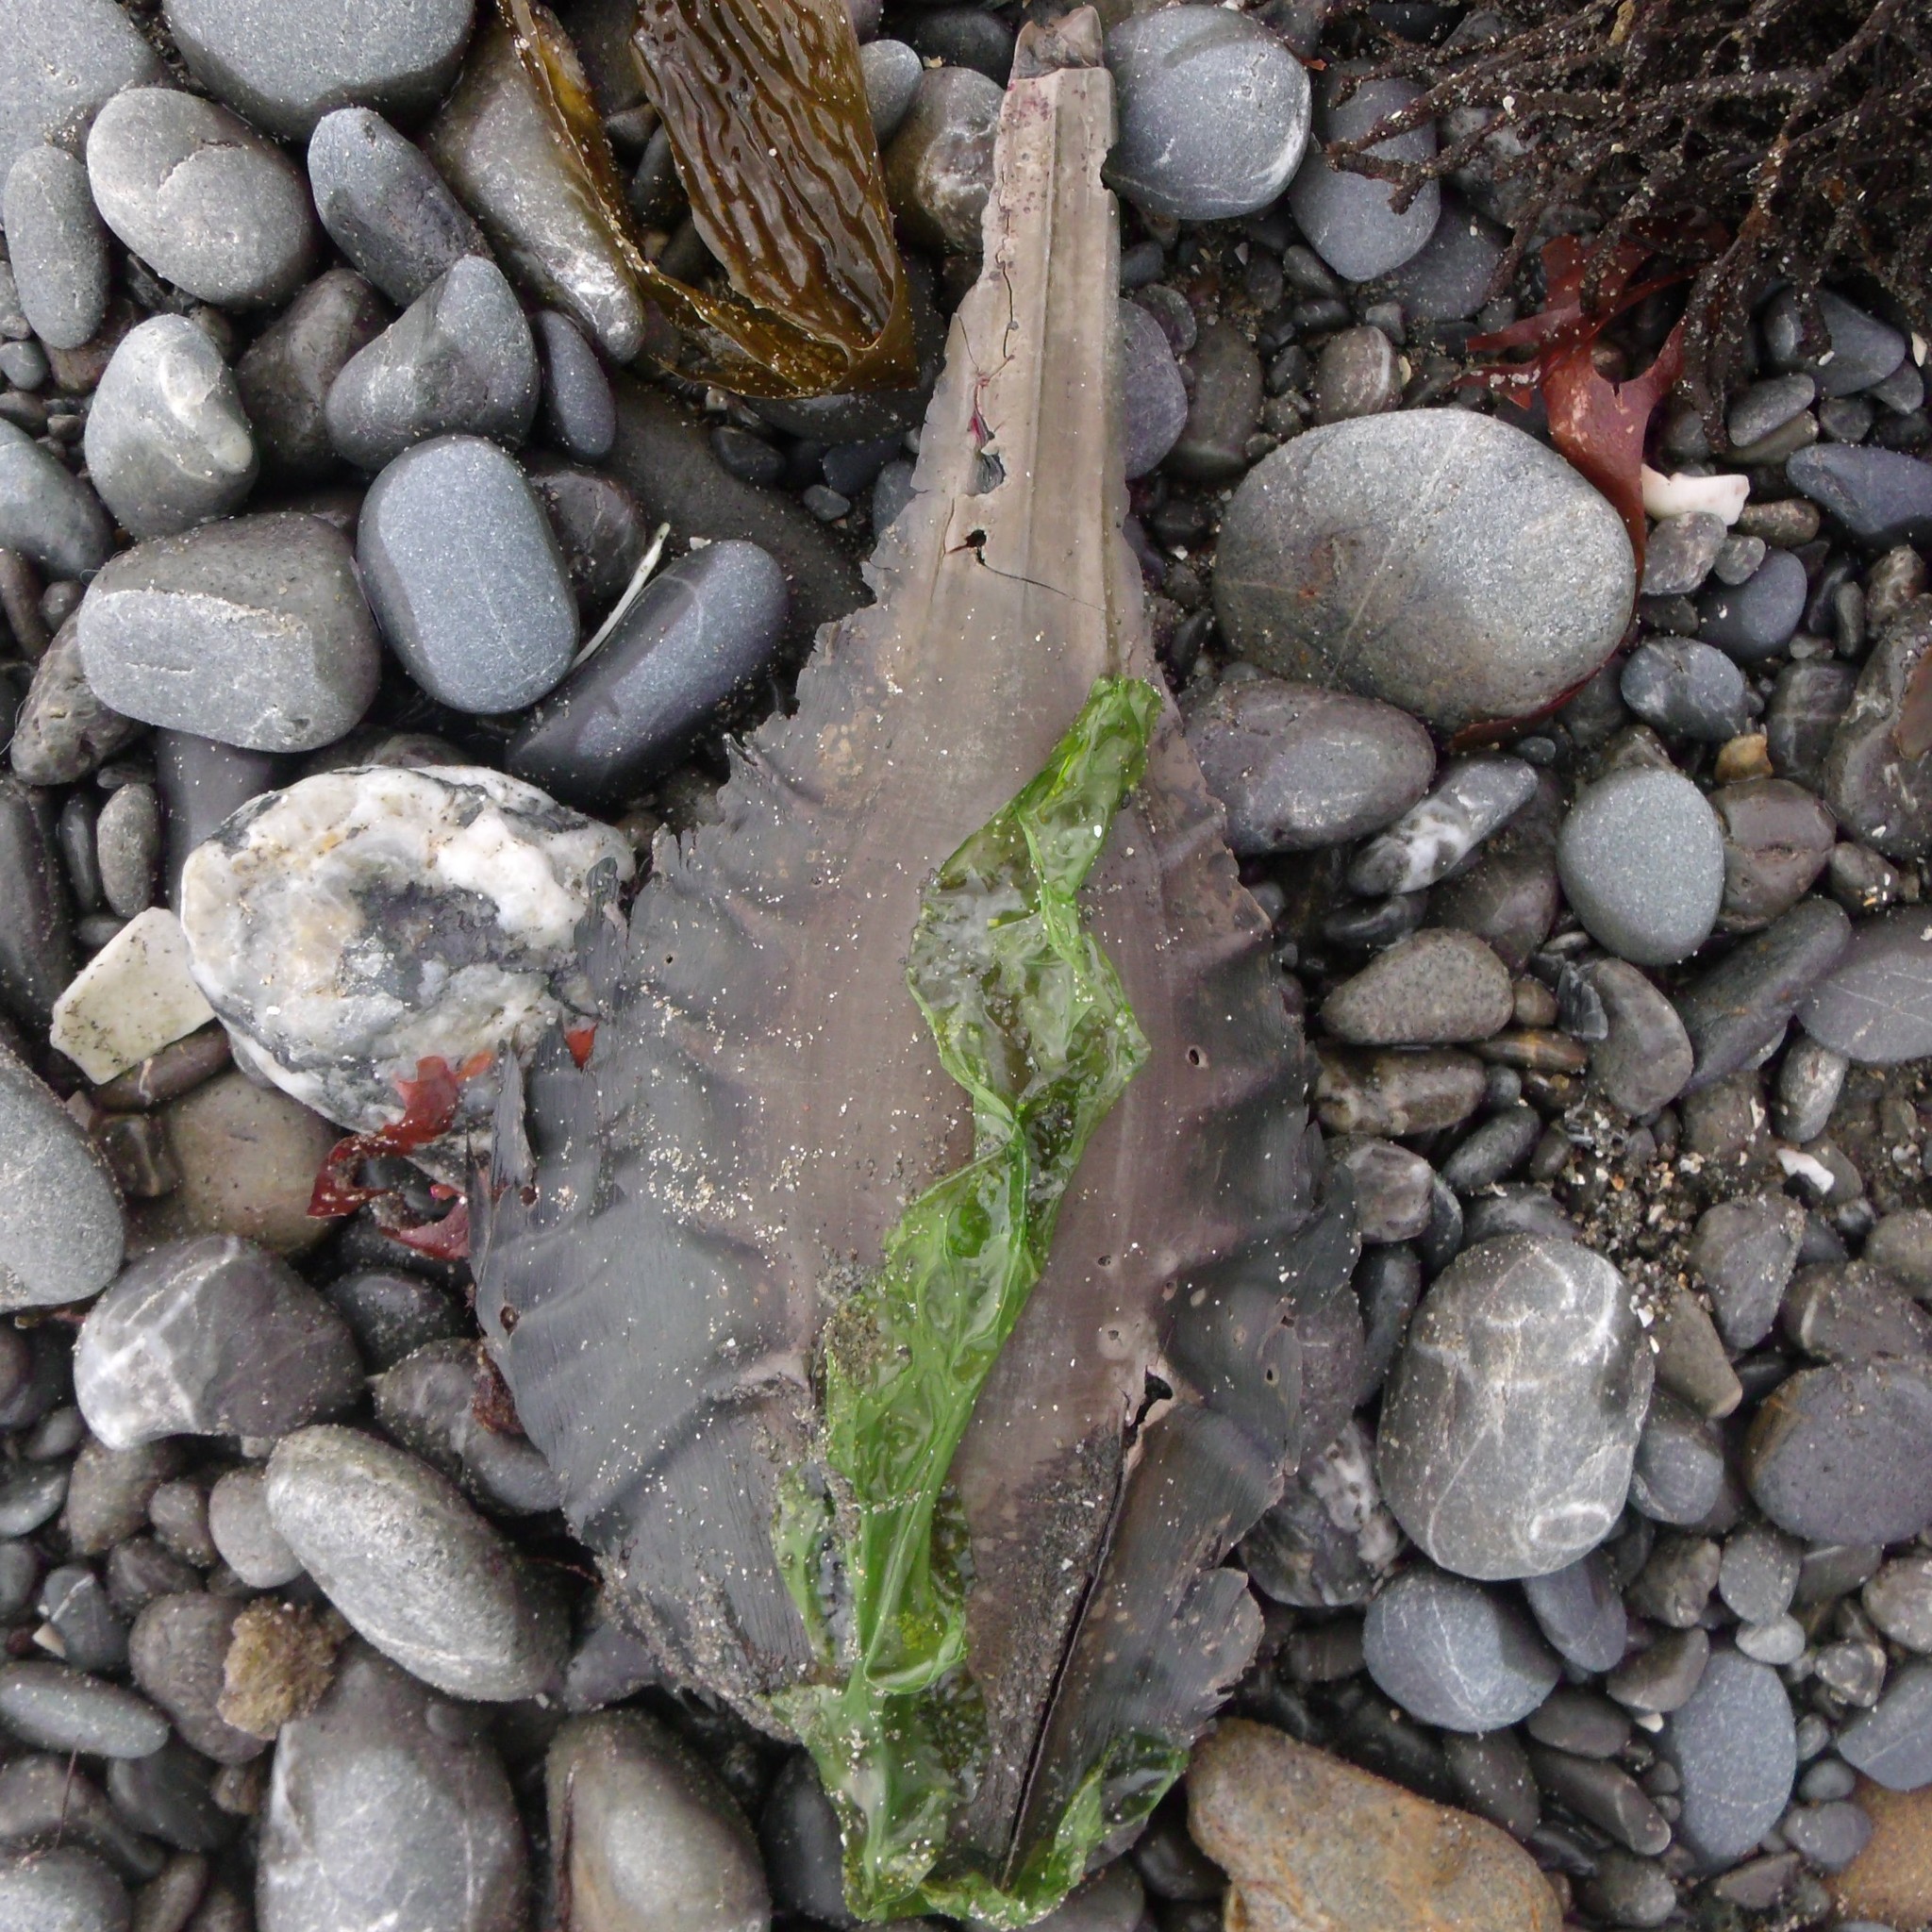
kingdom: Animalia
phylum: Chordata
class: Holocephali
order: Chimaeriformes
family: Callorhinchidae
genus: Callorhinchus
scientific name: Callorhinchus milii
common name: Elephant fish
